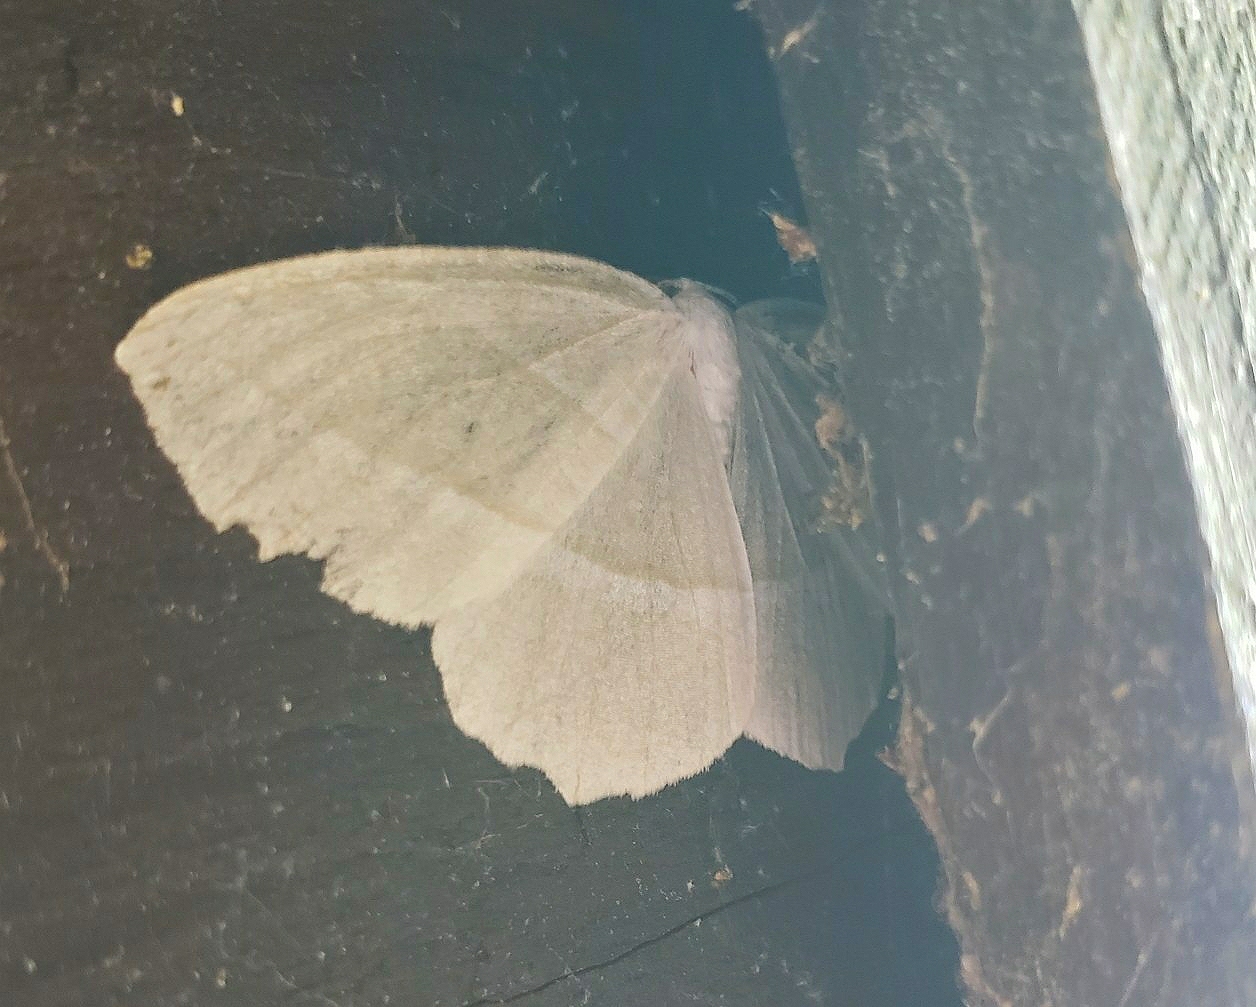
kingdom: Animalia
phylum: Arthropoda
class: Insecta
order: Lepidoptera
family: Geometridae
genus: Campaea
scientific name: Campaea perlata
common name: Fringed looper
